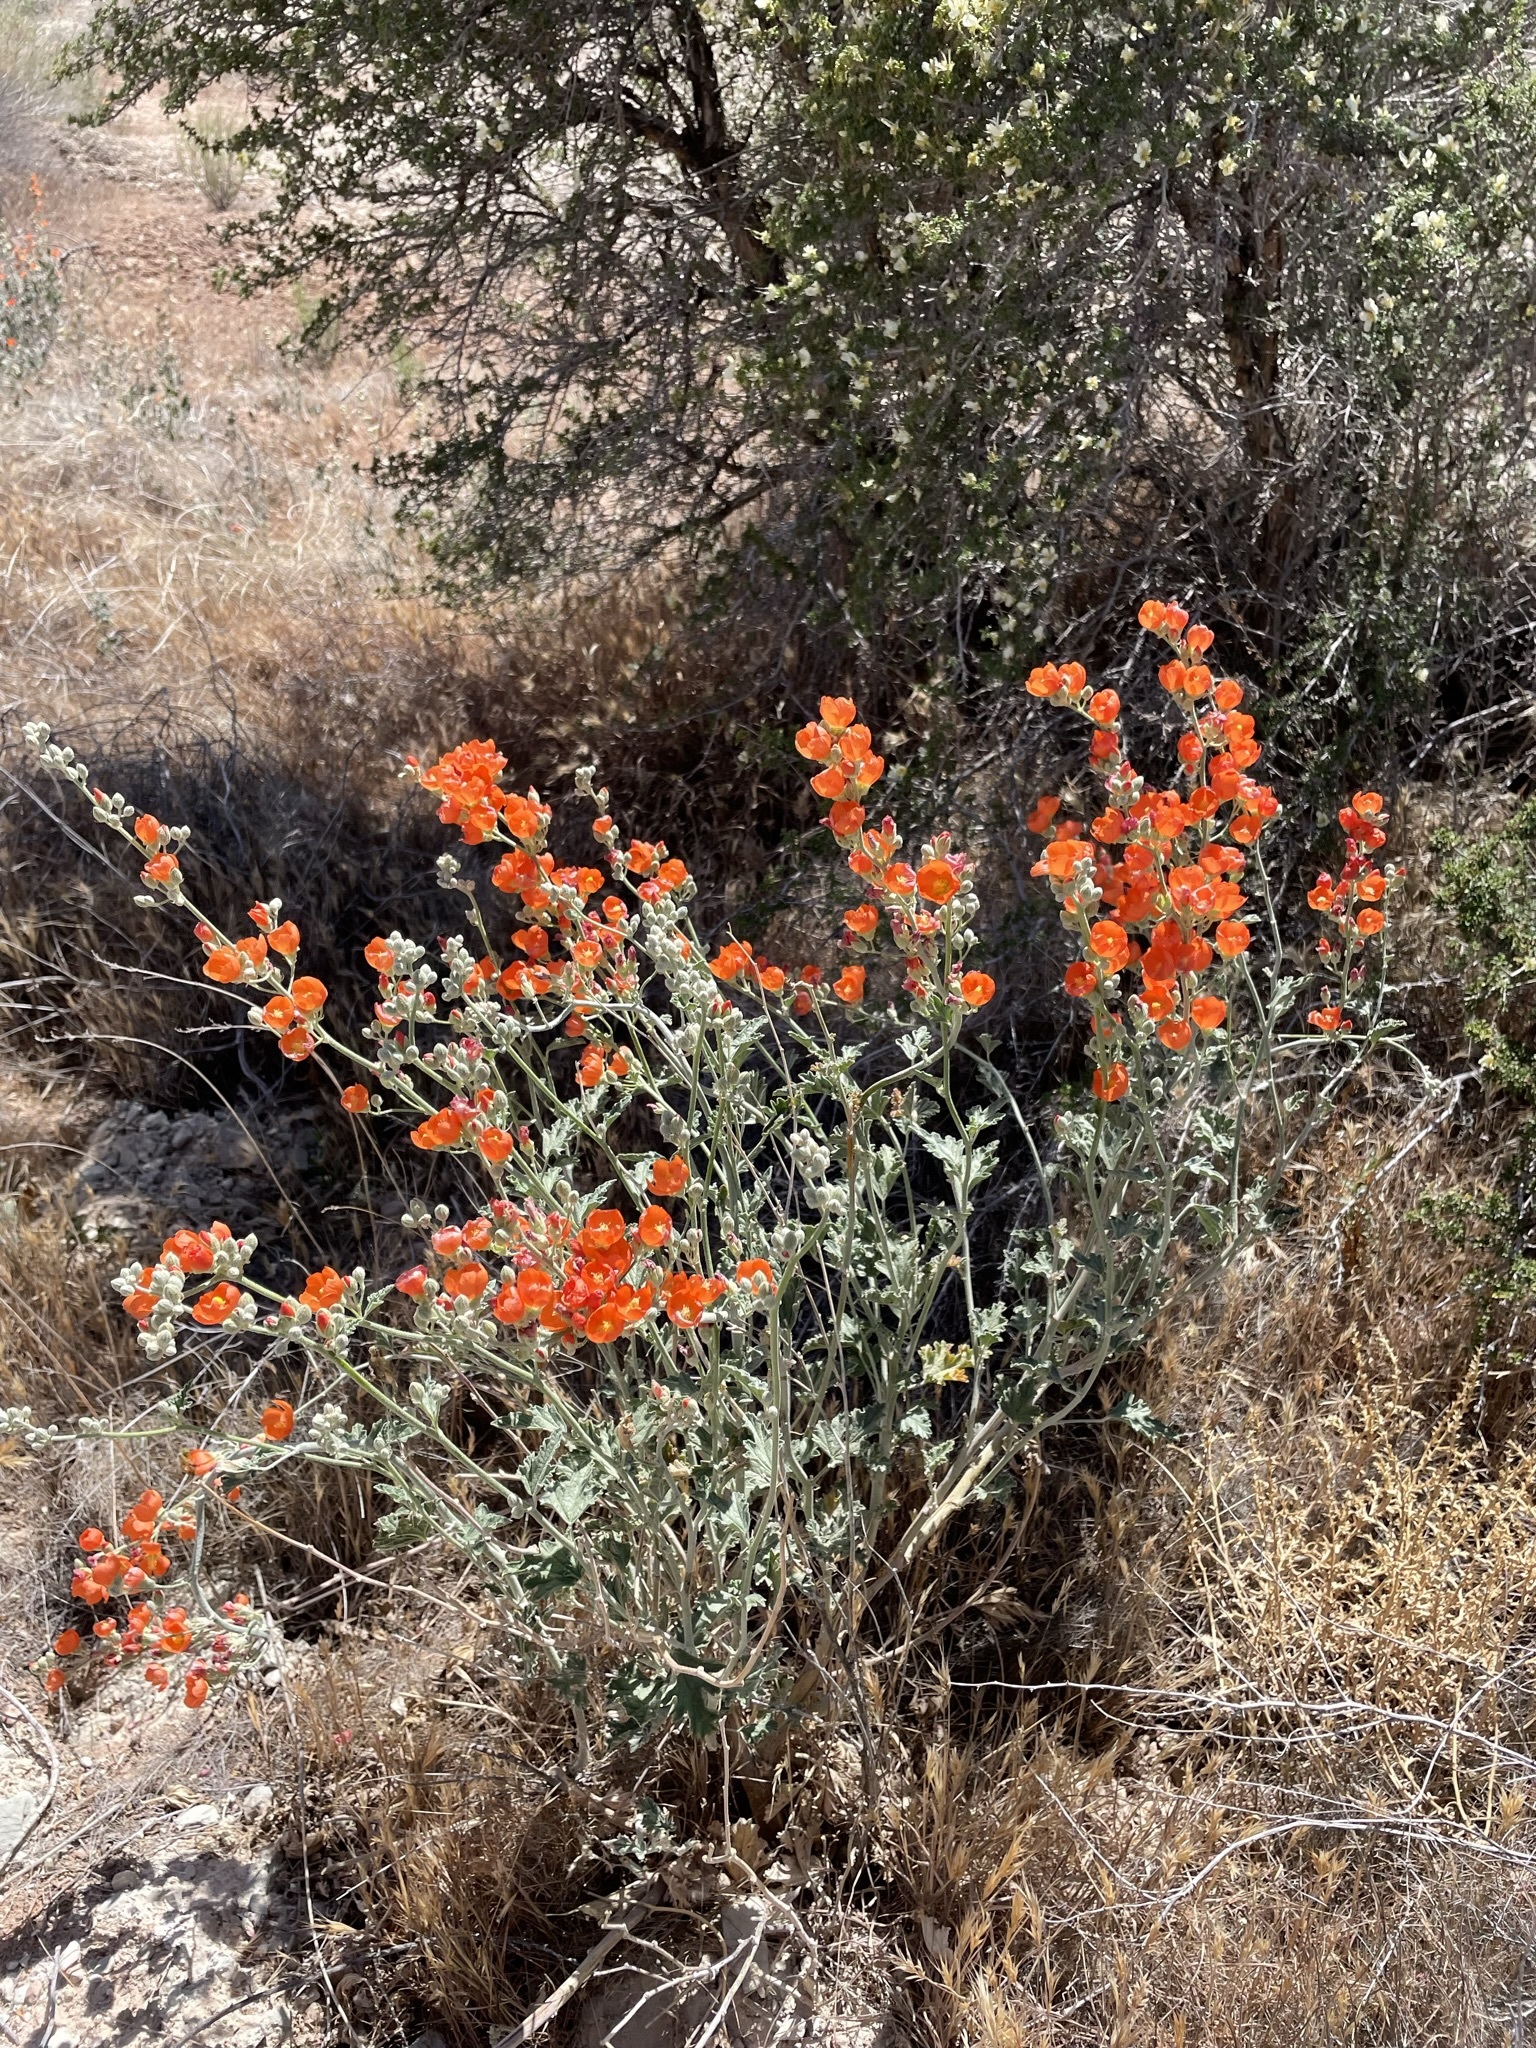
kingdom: Plantae
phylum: Tracheophyta
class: Magnoliopsida
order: Malvales
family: Malvaceae
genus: Sphaeralcea
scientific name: Sphaeralcea grossulariifolia
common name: Current-leaf globe-mallow
